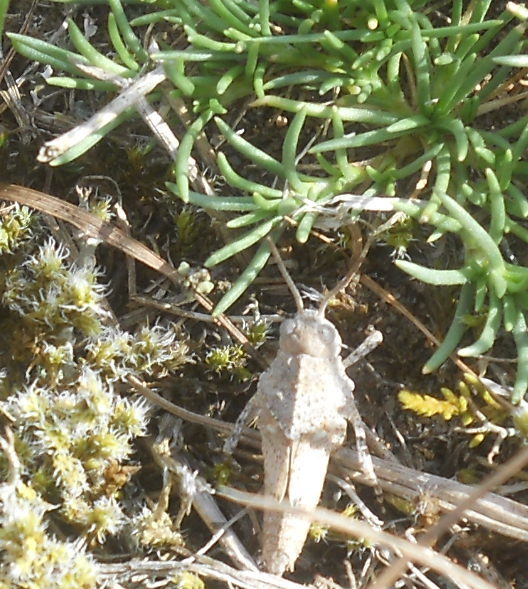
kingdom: Animalia
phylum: Arthropoda
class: Insecta
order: Orthoptera
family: Acrididae
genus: Oedipoda
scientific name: Oedipoda caerulescens
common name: Blue-winged grasshopper
